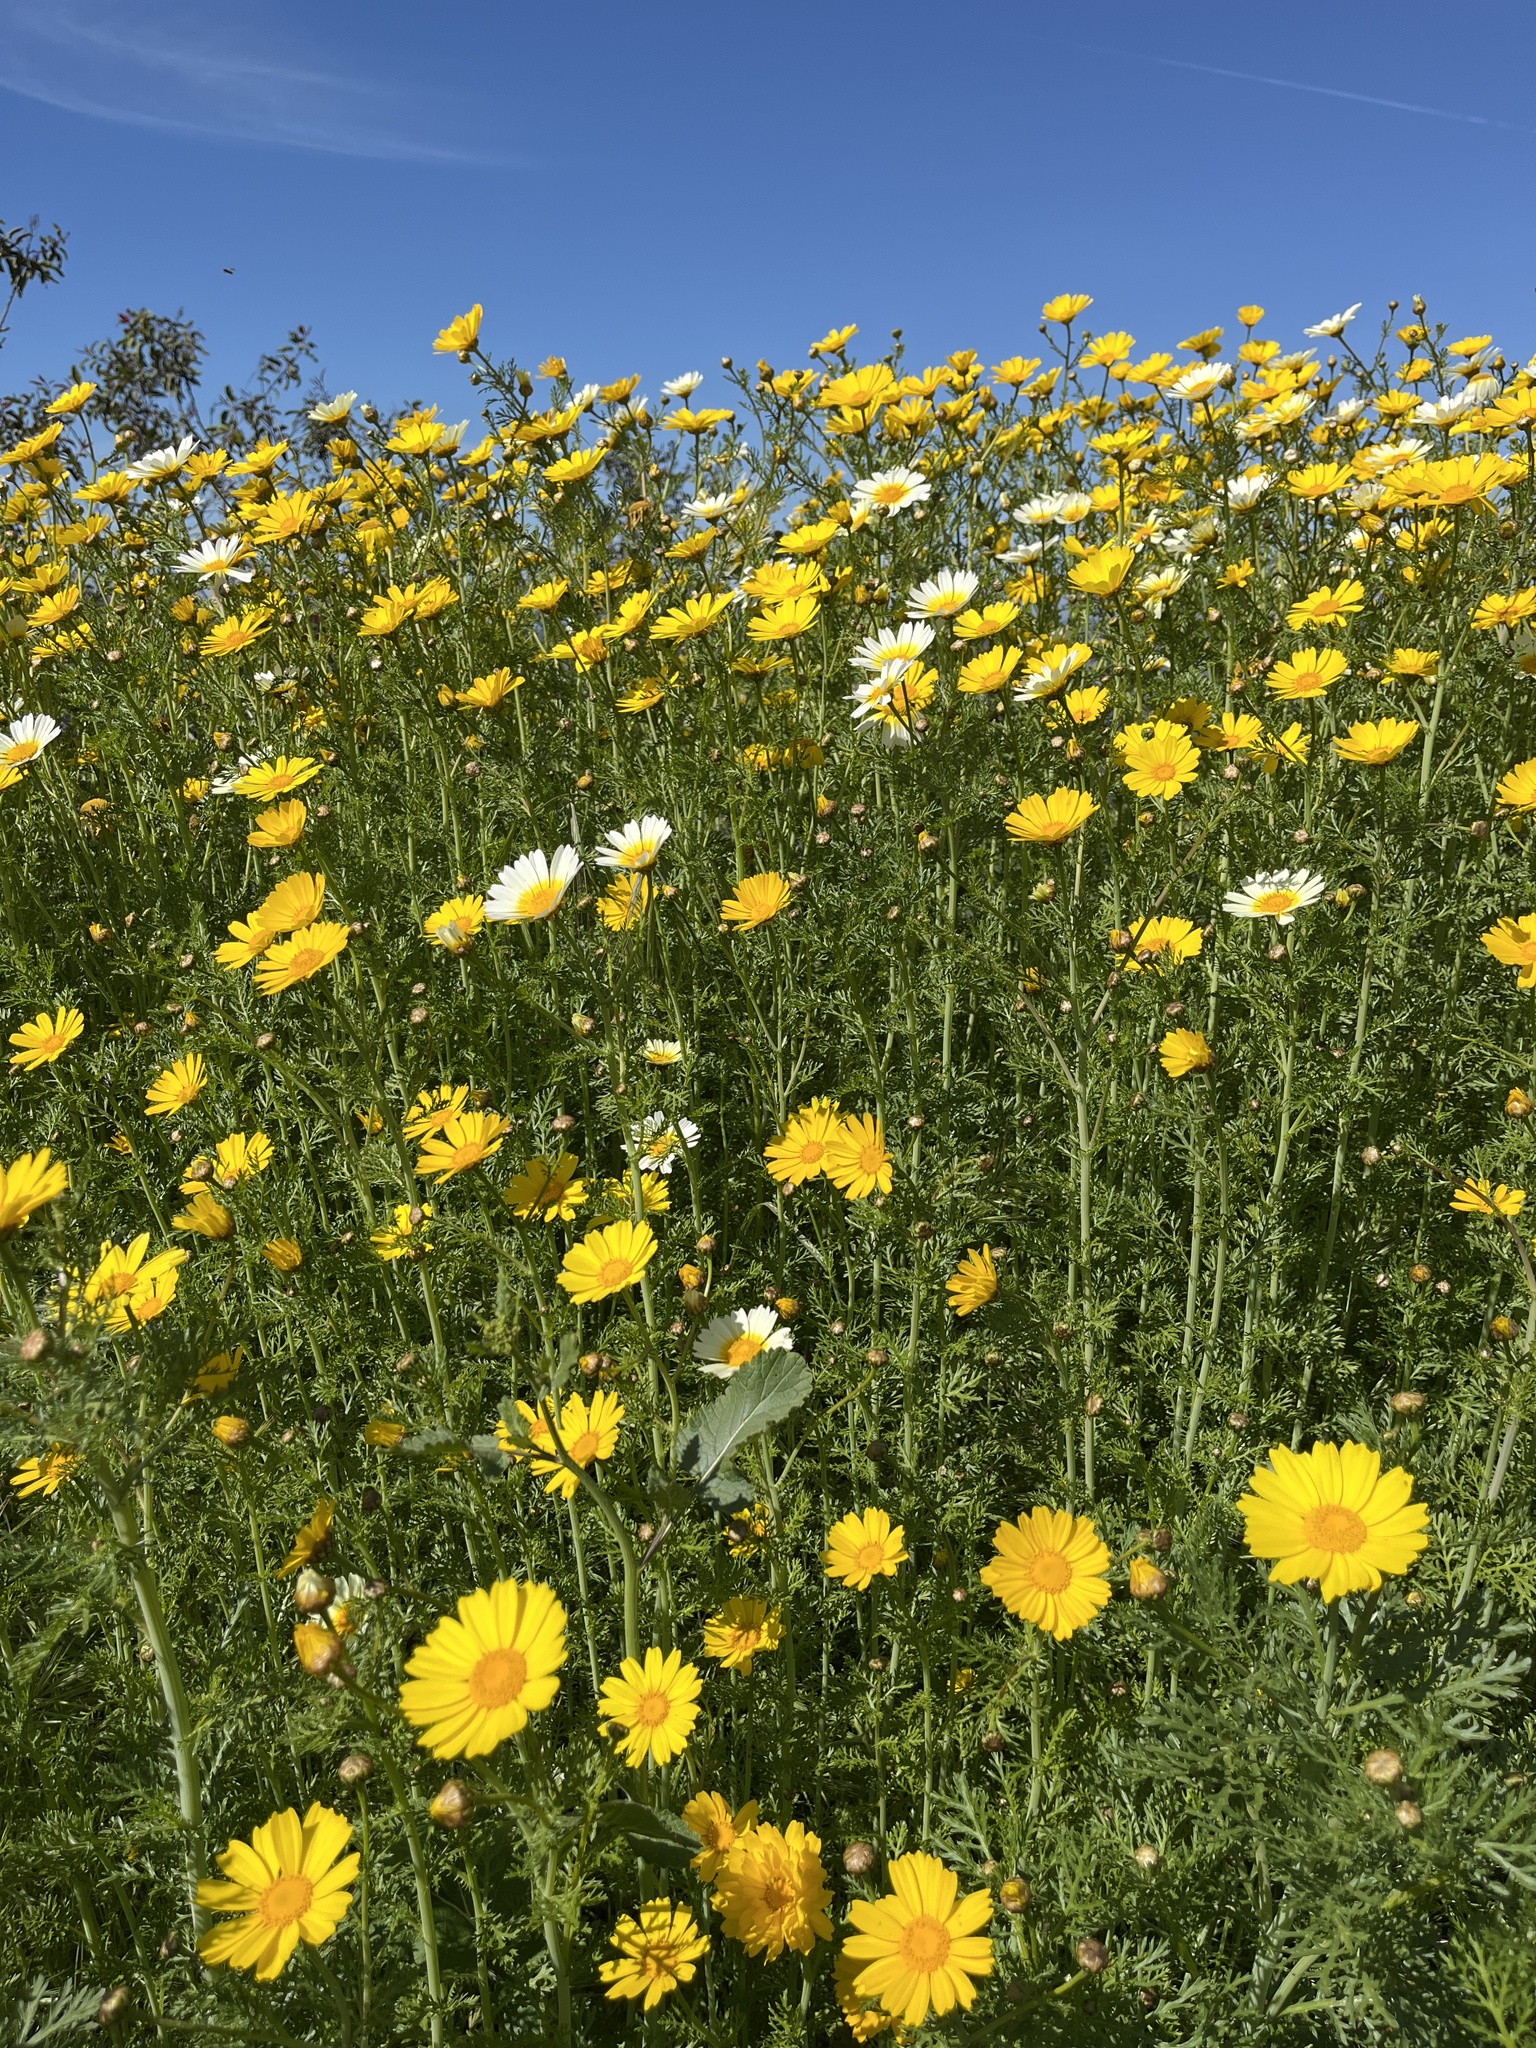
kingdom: Plantae
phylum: Tracheophyta
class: Magnoliopsida
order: Asterales
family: Asteraceae
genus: Glebionis
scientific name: Glebionis coronaria
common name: Crowndaisy
